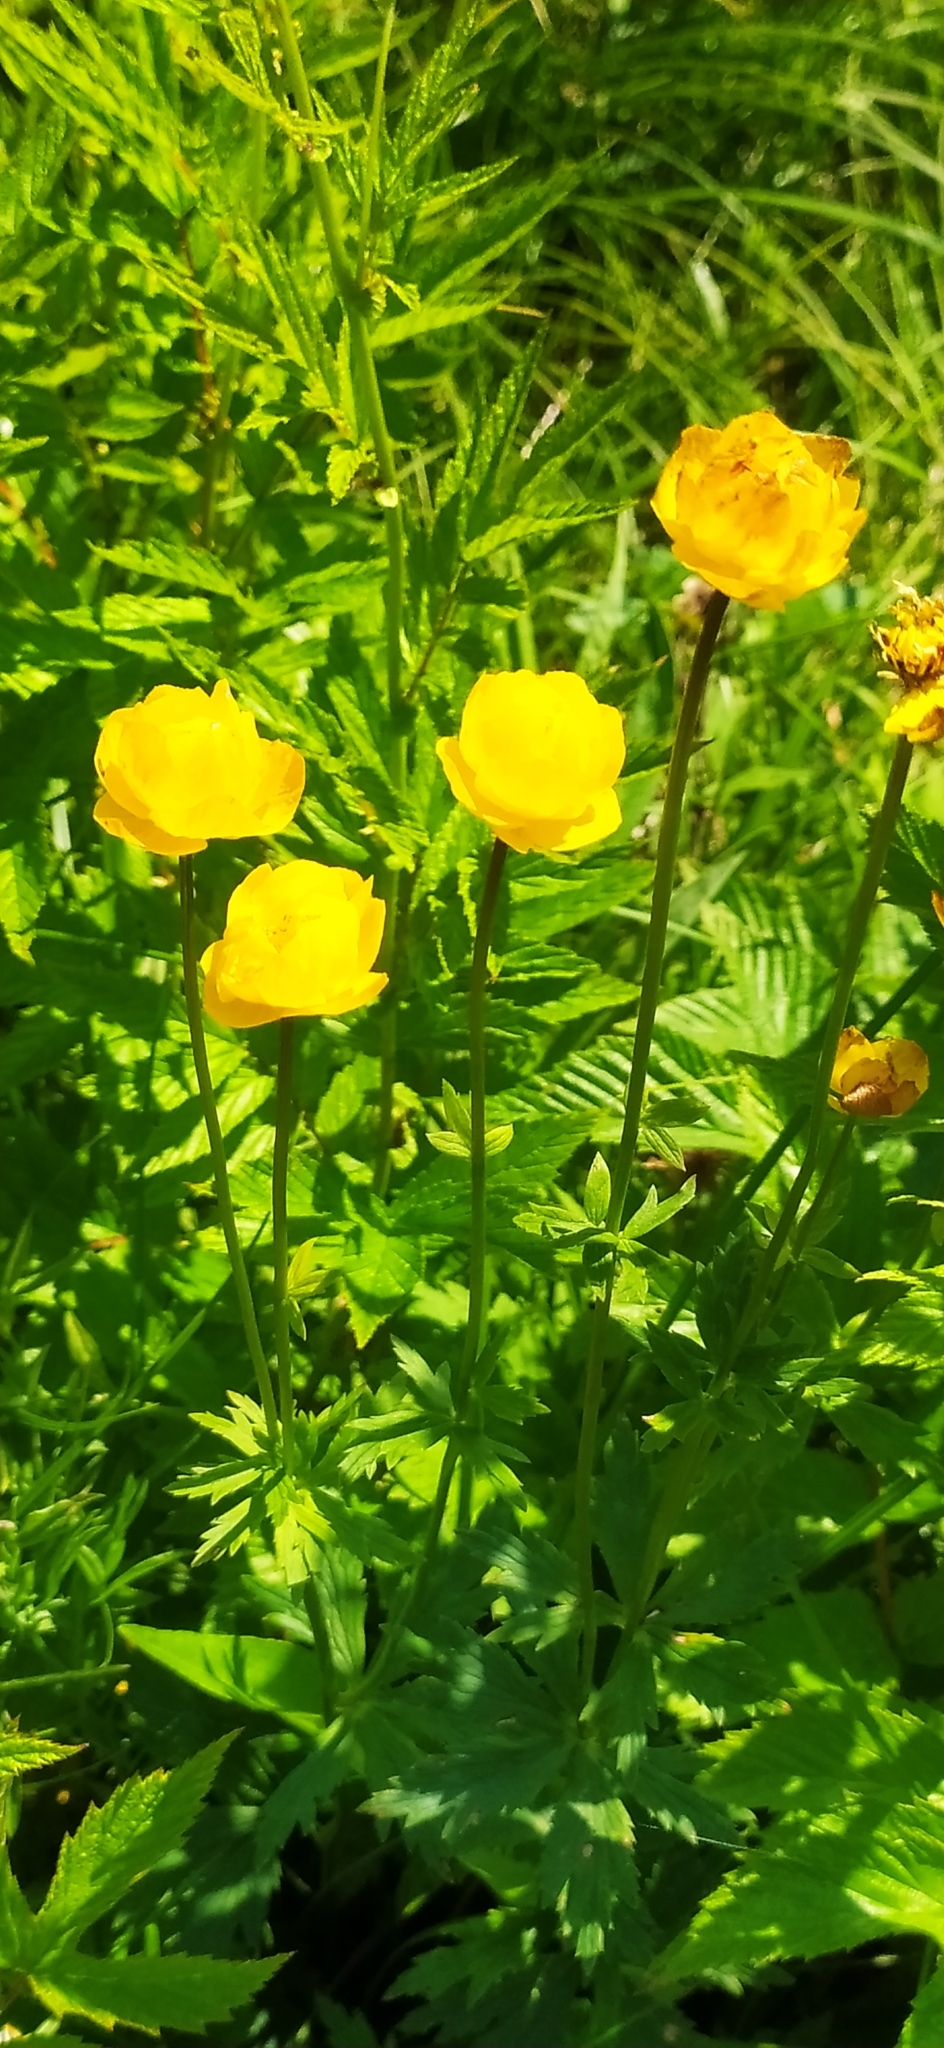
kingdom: Plantae
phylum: Tracheophyta
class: Magnoliopsida
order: Ranunculales
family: Ranunculaceae
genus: Trollius
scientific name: Trollius europaeus
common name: European globeflower
